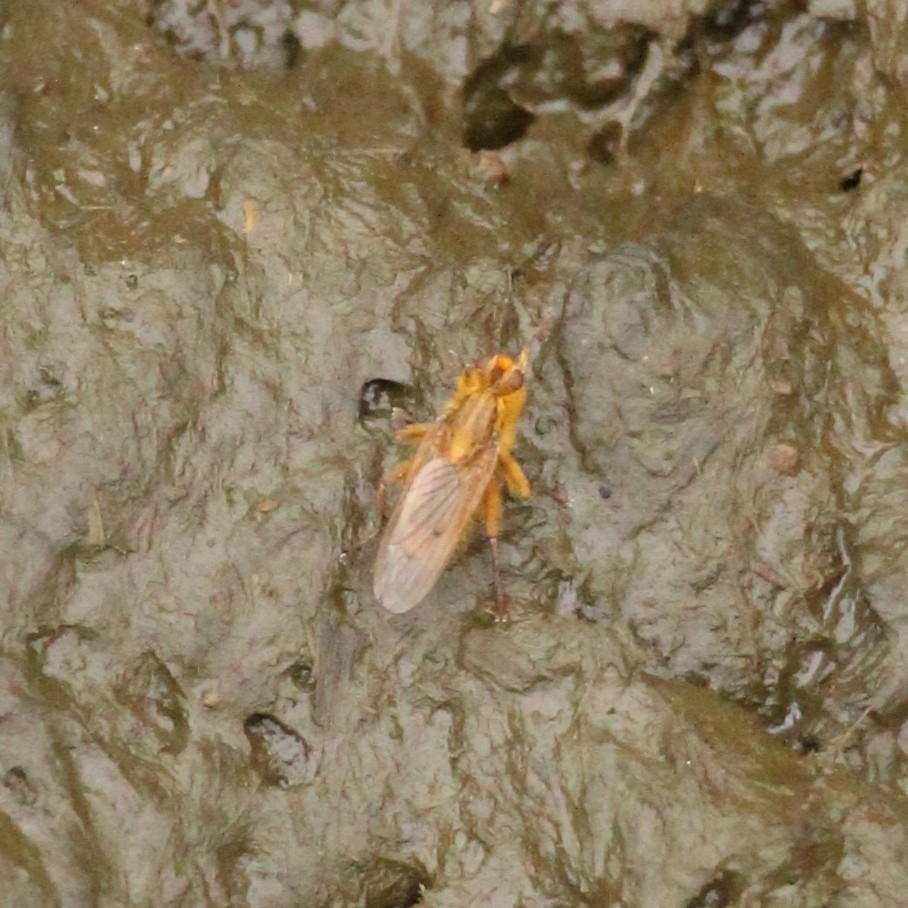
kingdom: Animalia
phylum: Arthropoda
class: Insecta
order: Diptera
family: Scathophagidae
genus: Scathophaga
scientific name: Scathophaga stercoraria
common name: Yellow dung fly
